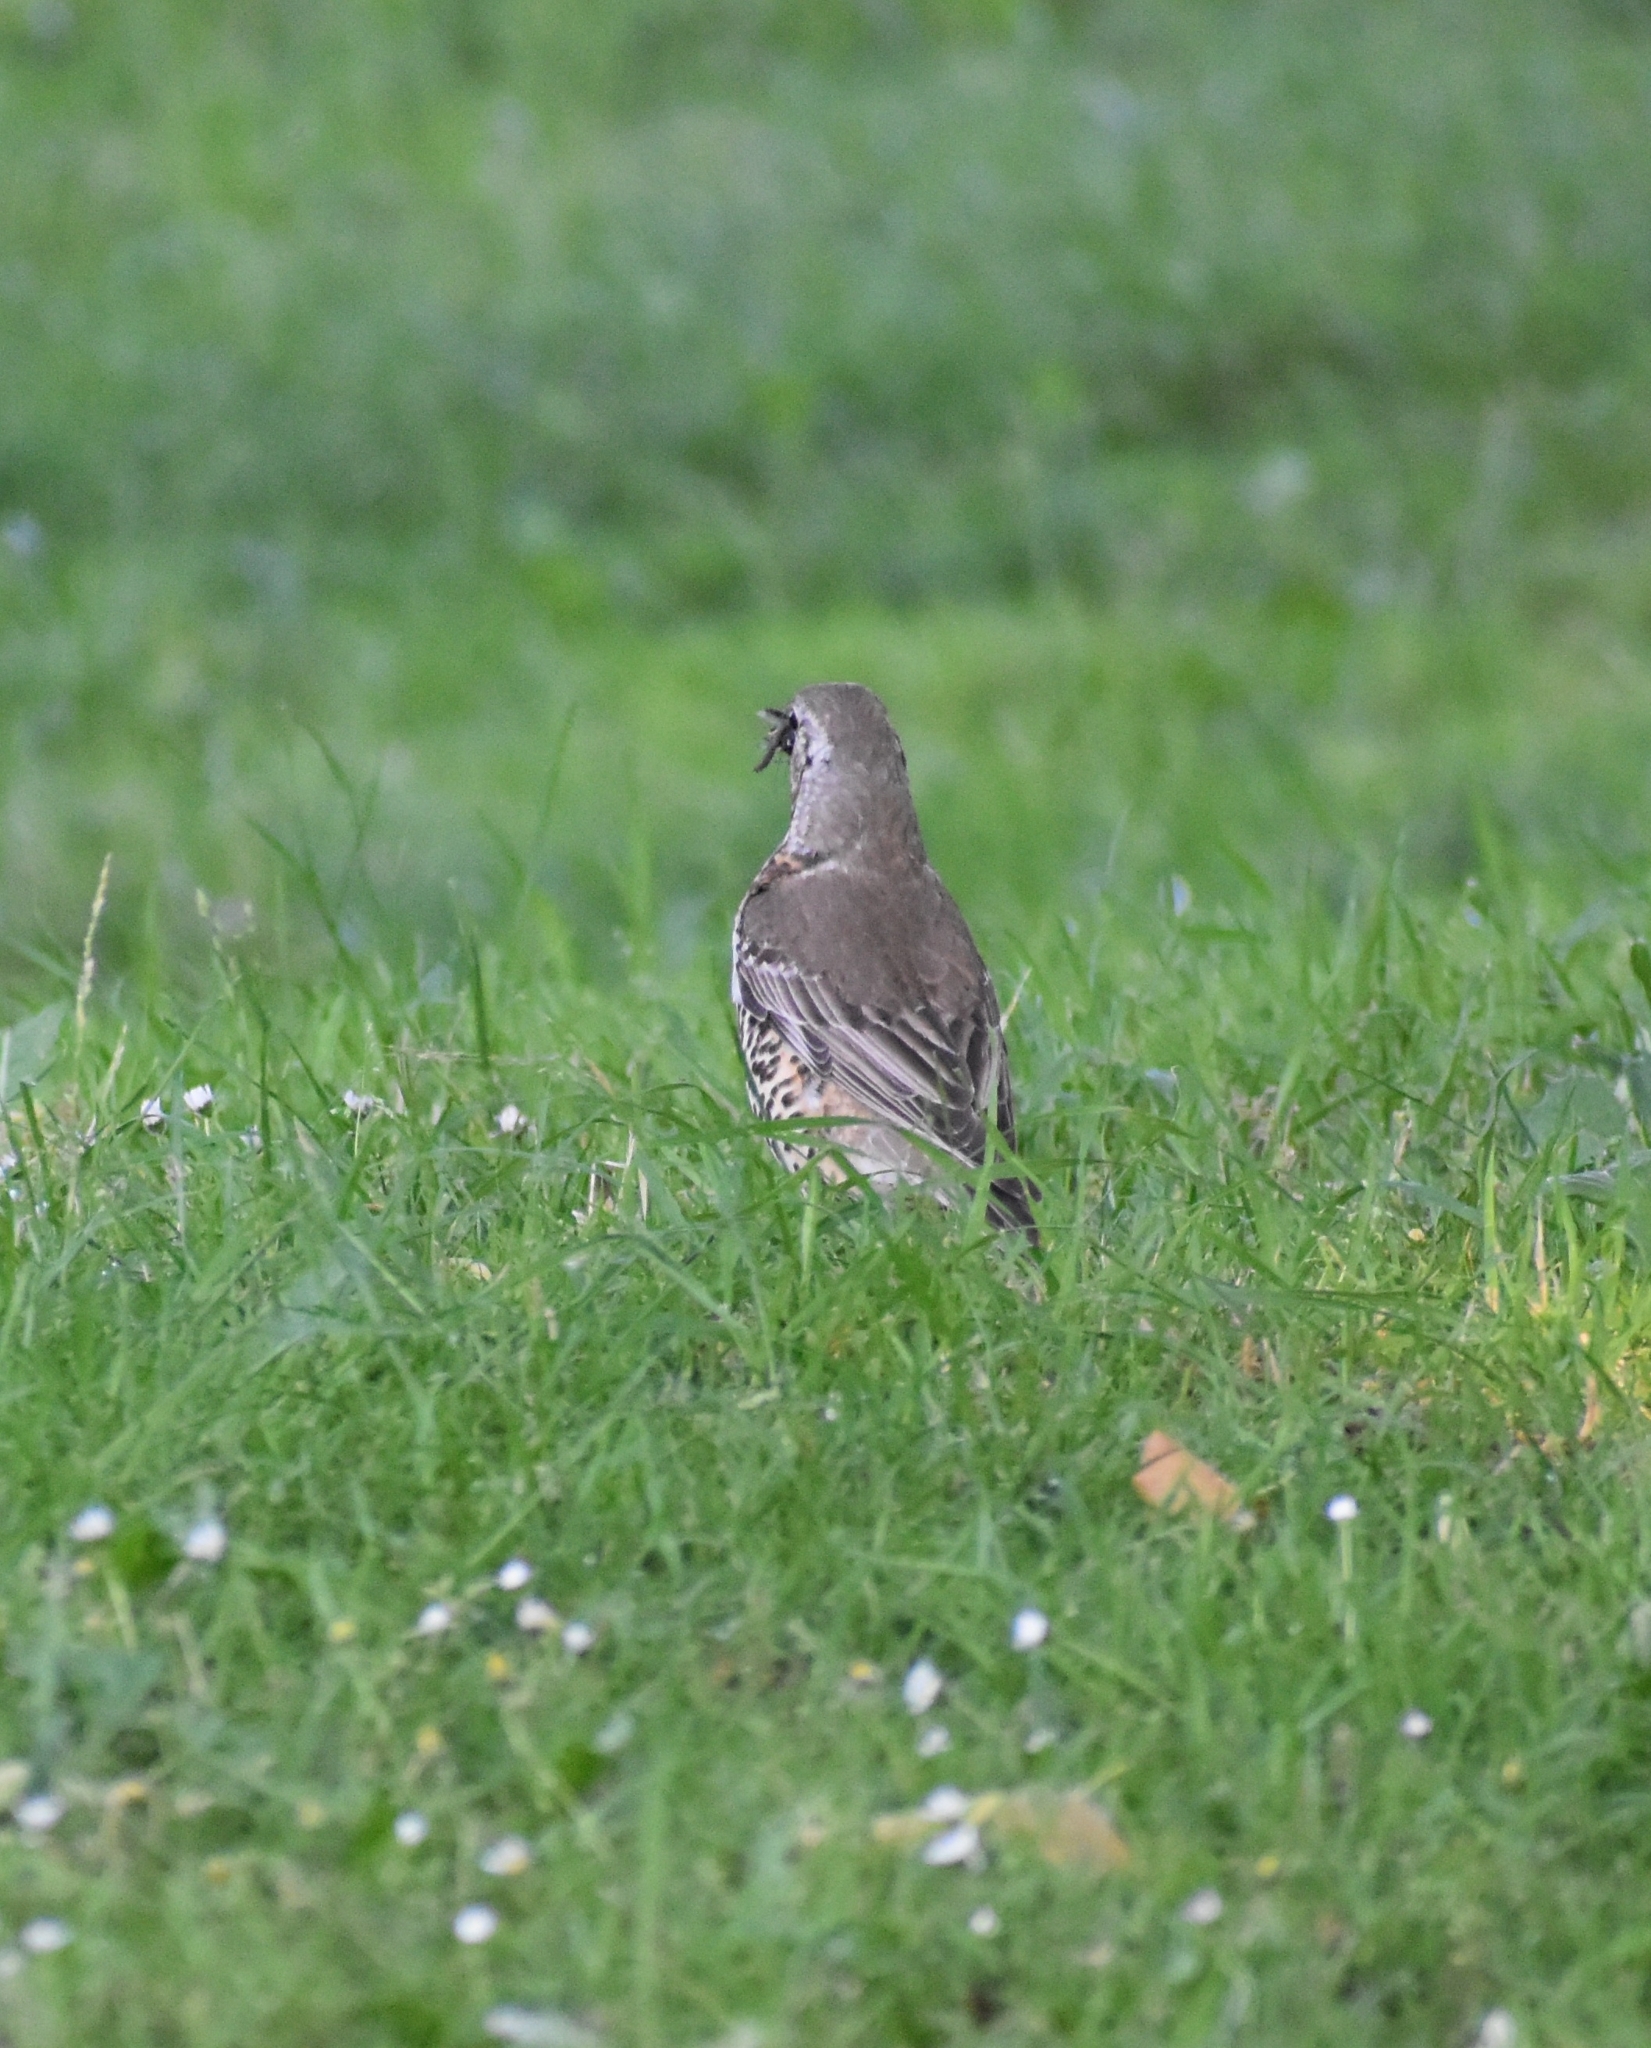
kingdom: Animalia
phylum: Chordata
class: Aves
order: Passeriformes
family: Turdidae
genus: Turdus
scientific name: Turdus viscivorus
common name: Mistle thrush
